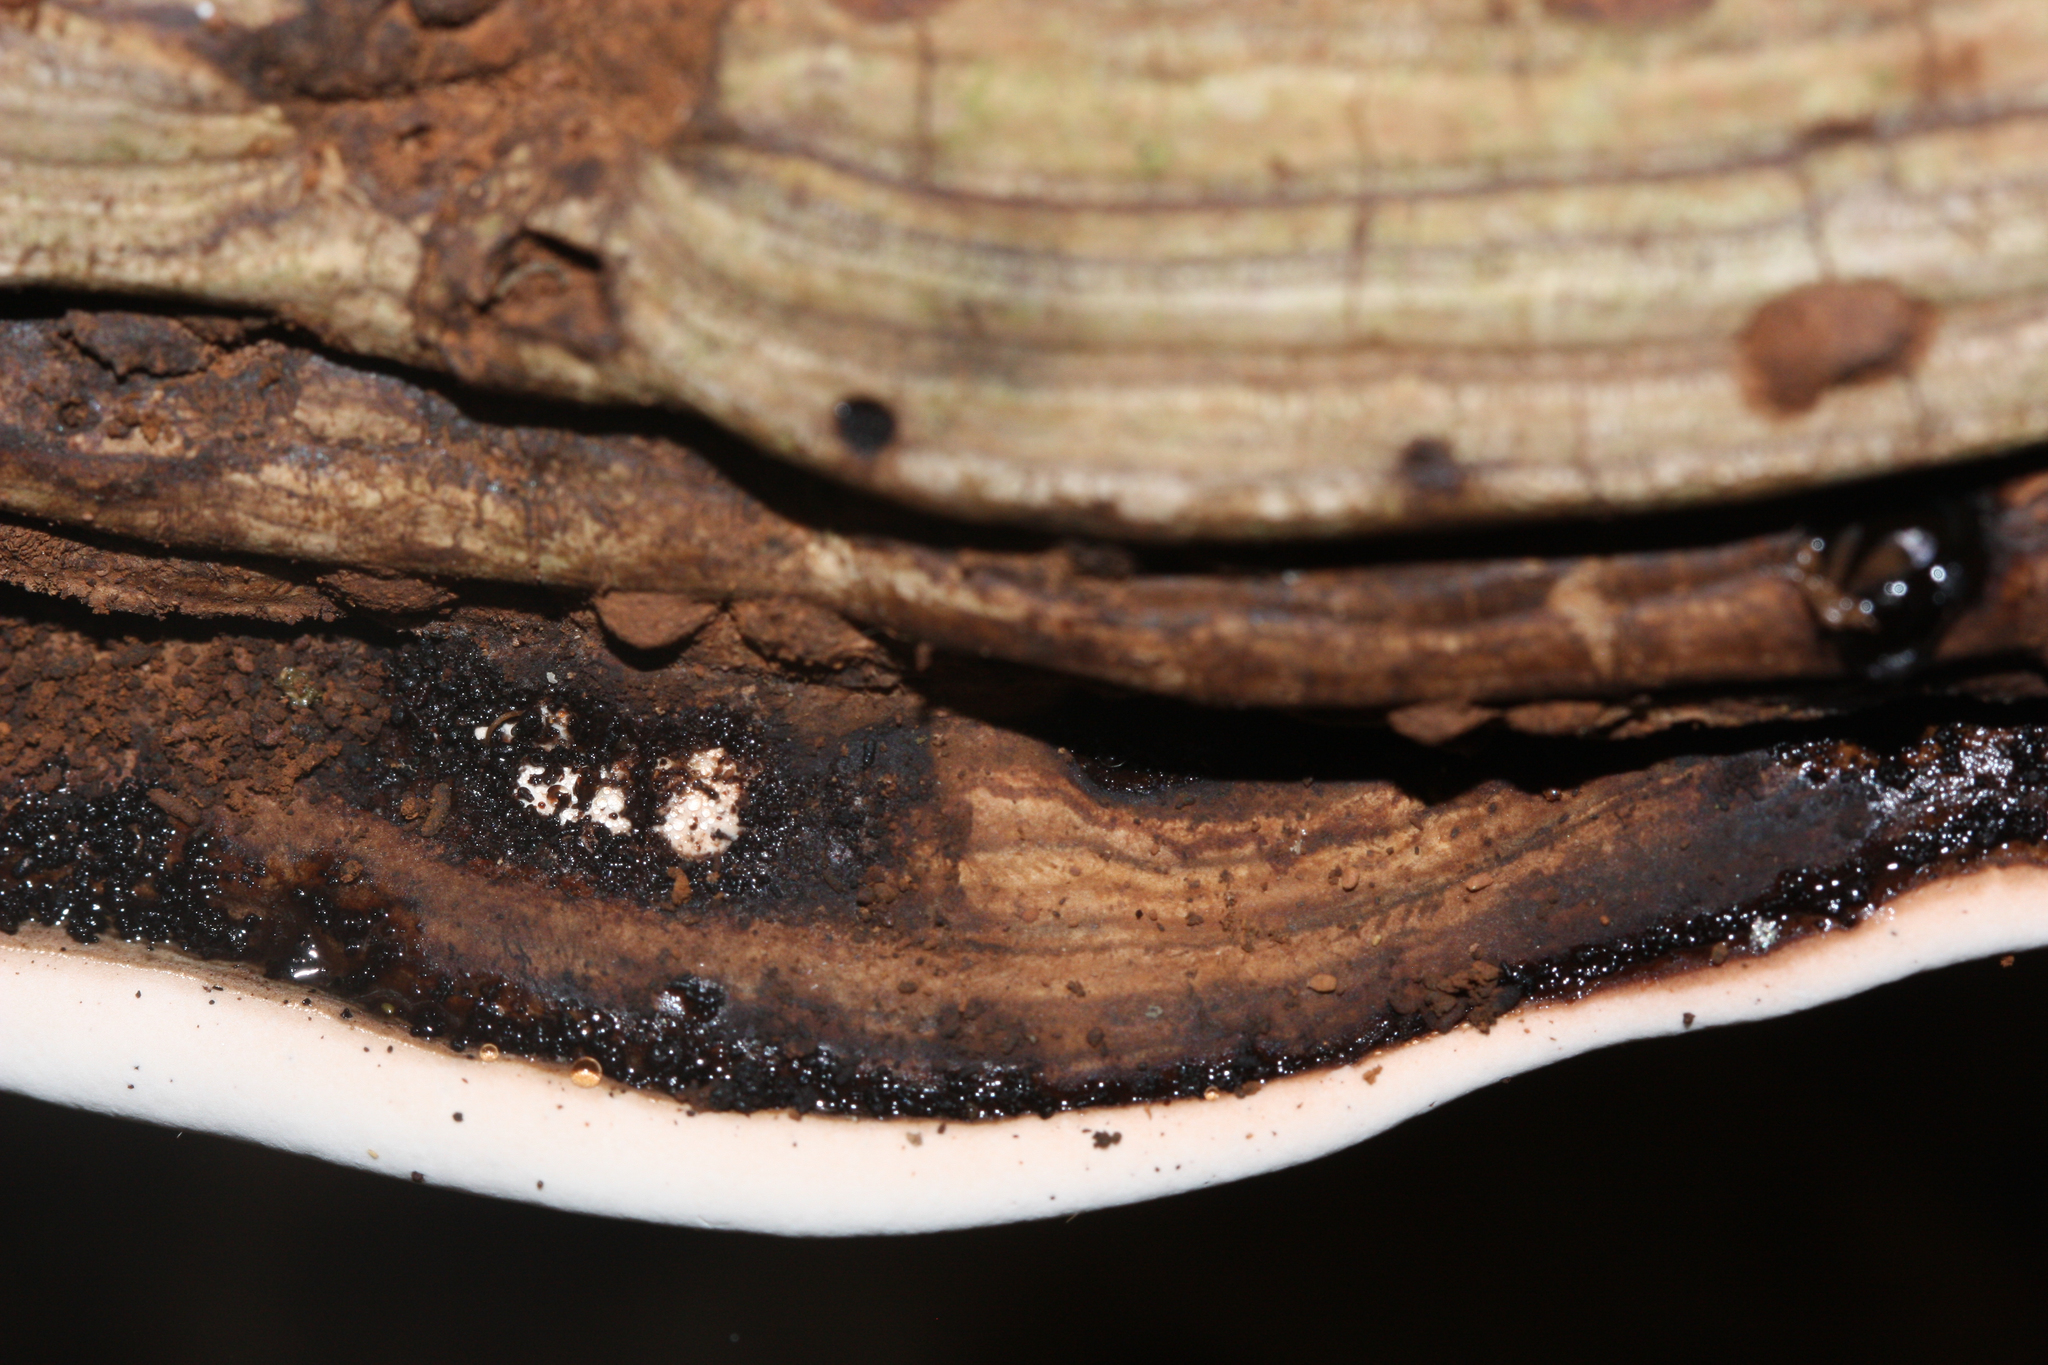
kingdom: Fungi
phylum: Basidiomycota
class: Agaricomycetes
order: Polyporales
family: Polyporaceae
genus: Ganoderma
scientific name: Ganoderma applanatum
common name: Artist's bracket
